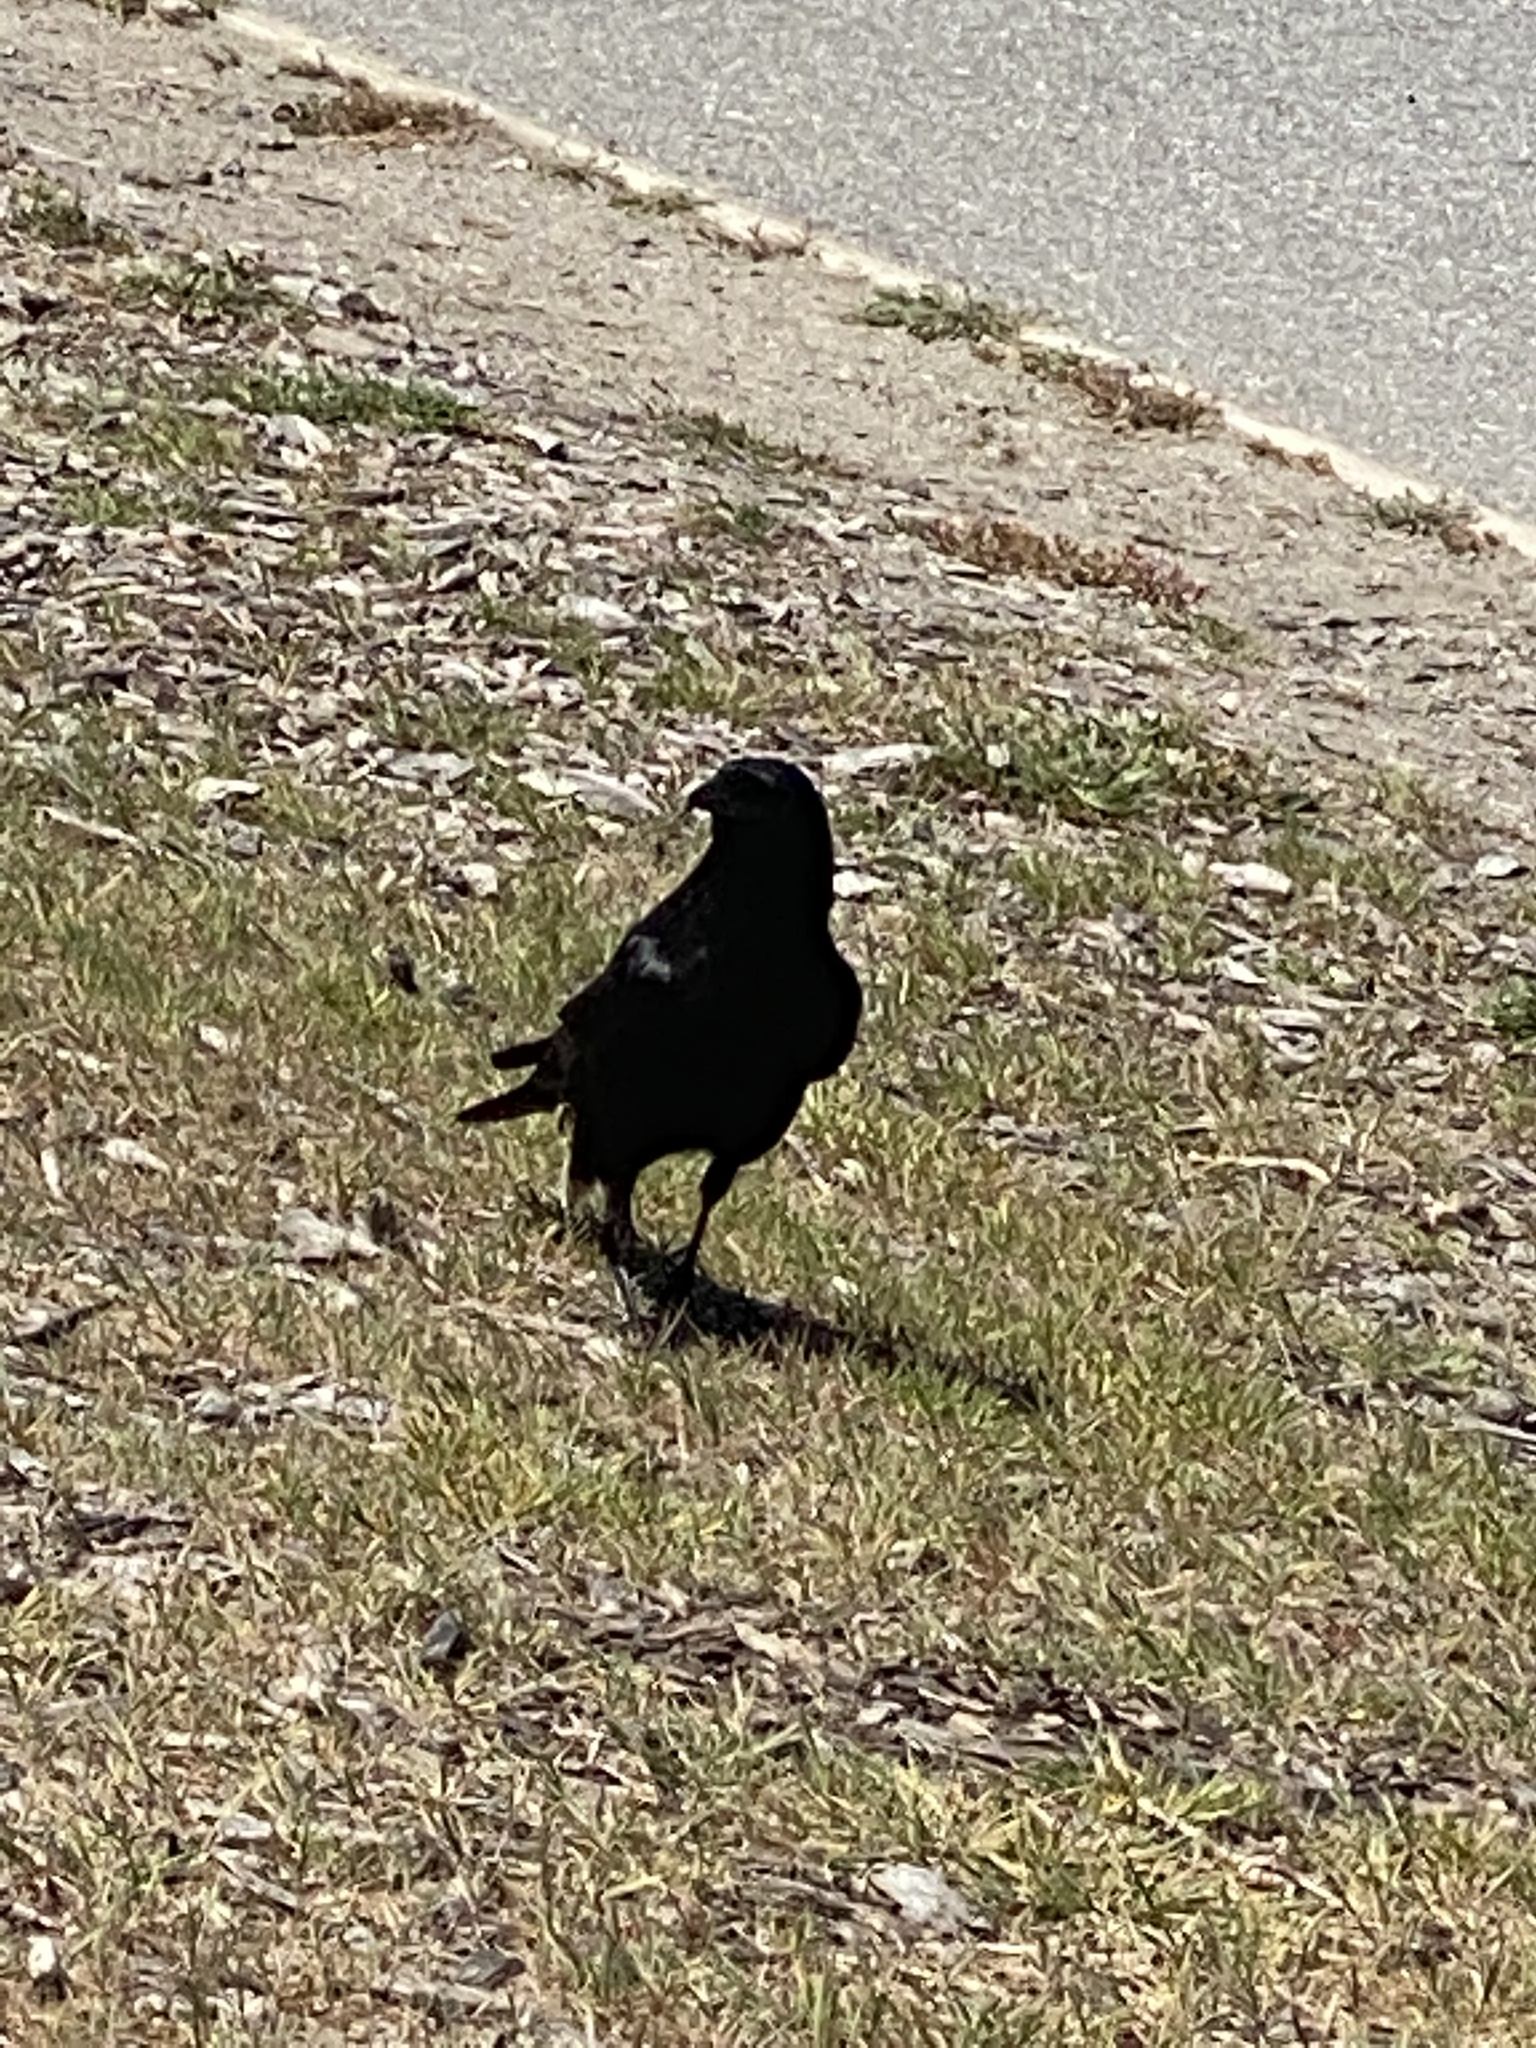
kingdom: Animalia
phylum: Chordata
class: Aves
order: Passeriformes
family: Corvidae
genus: Corvus
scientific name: Corvus brachyrhynchos
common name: American crow
